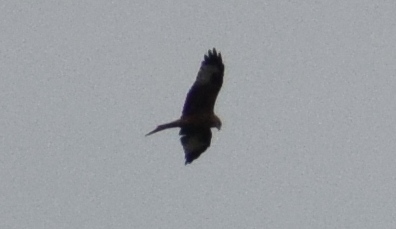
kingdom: Animalia
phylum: Chordata
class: Aves
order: Accipitriformes
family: Accipitridae
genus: Milvus
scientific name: Milvus milvus
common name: Red kite
